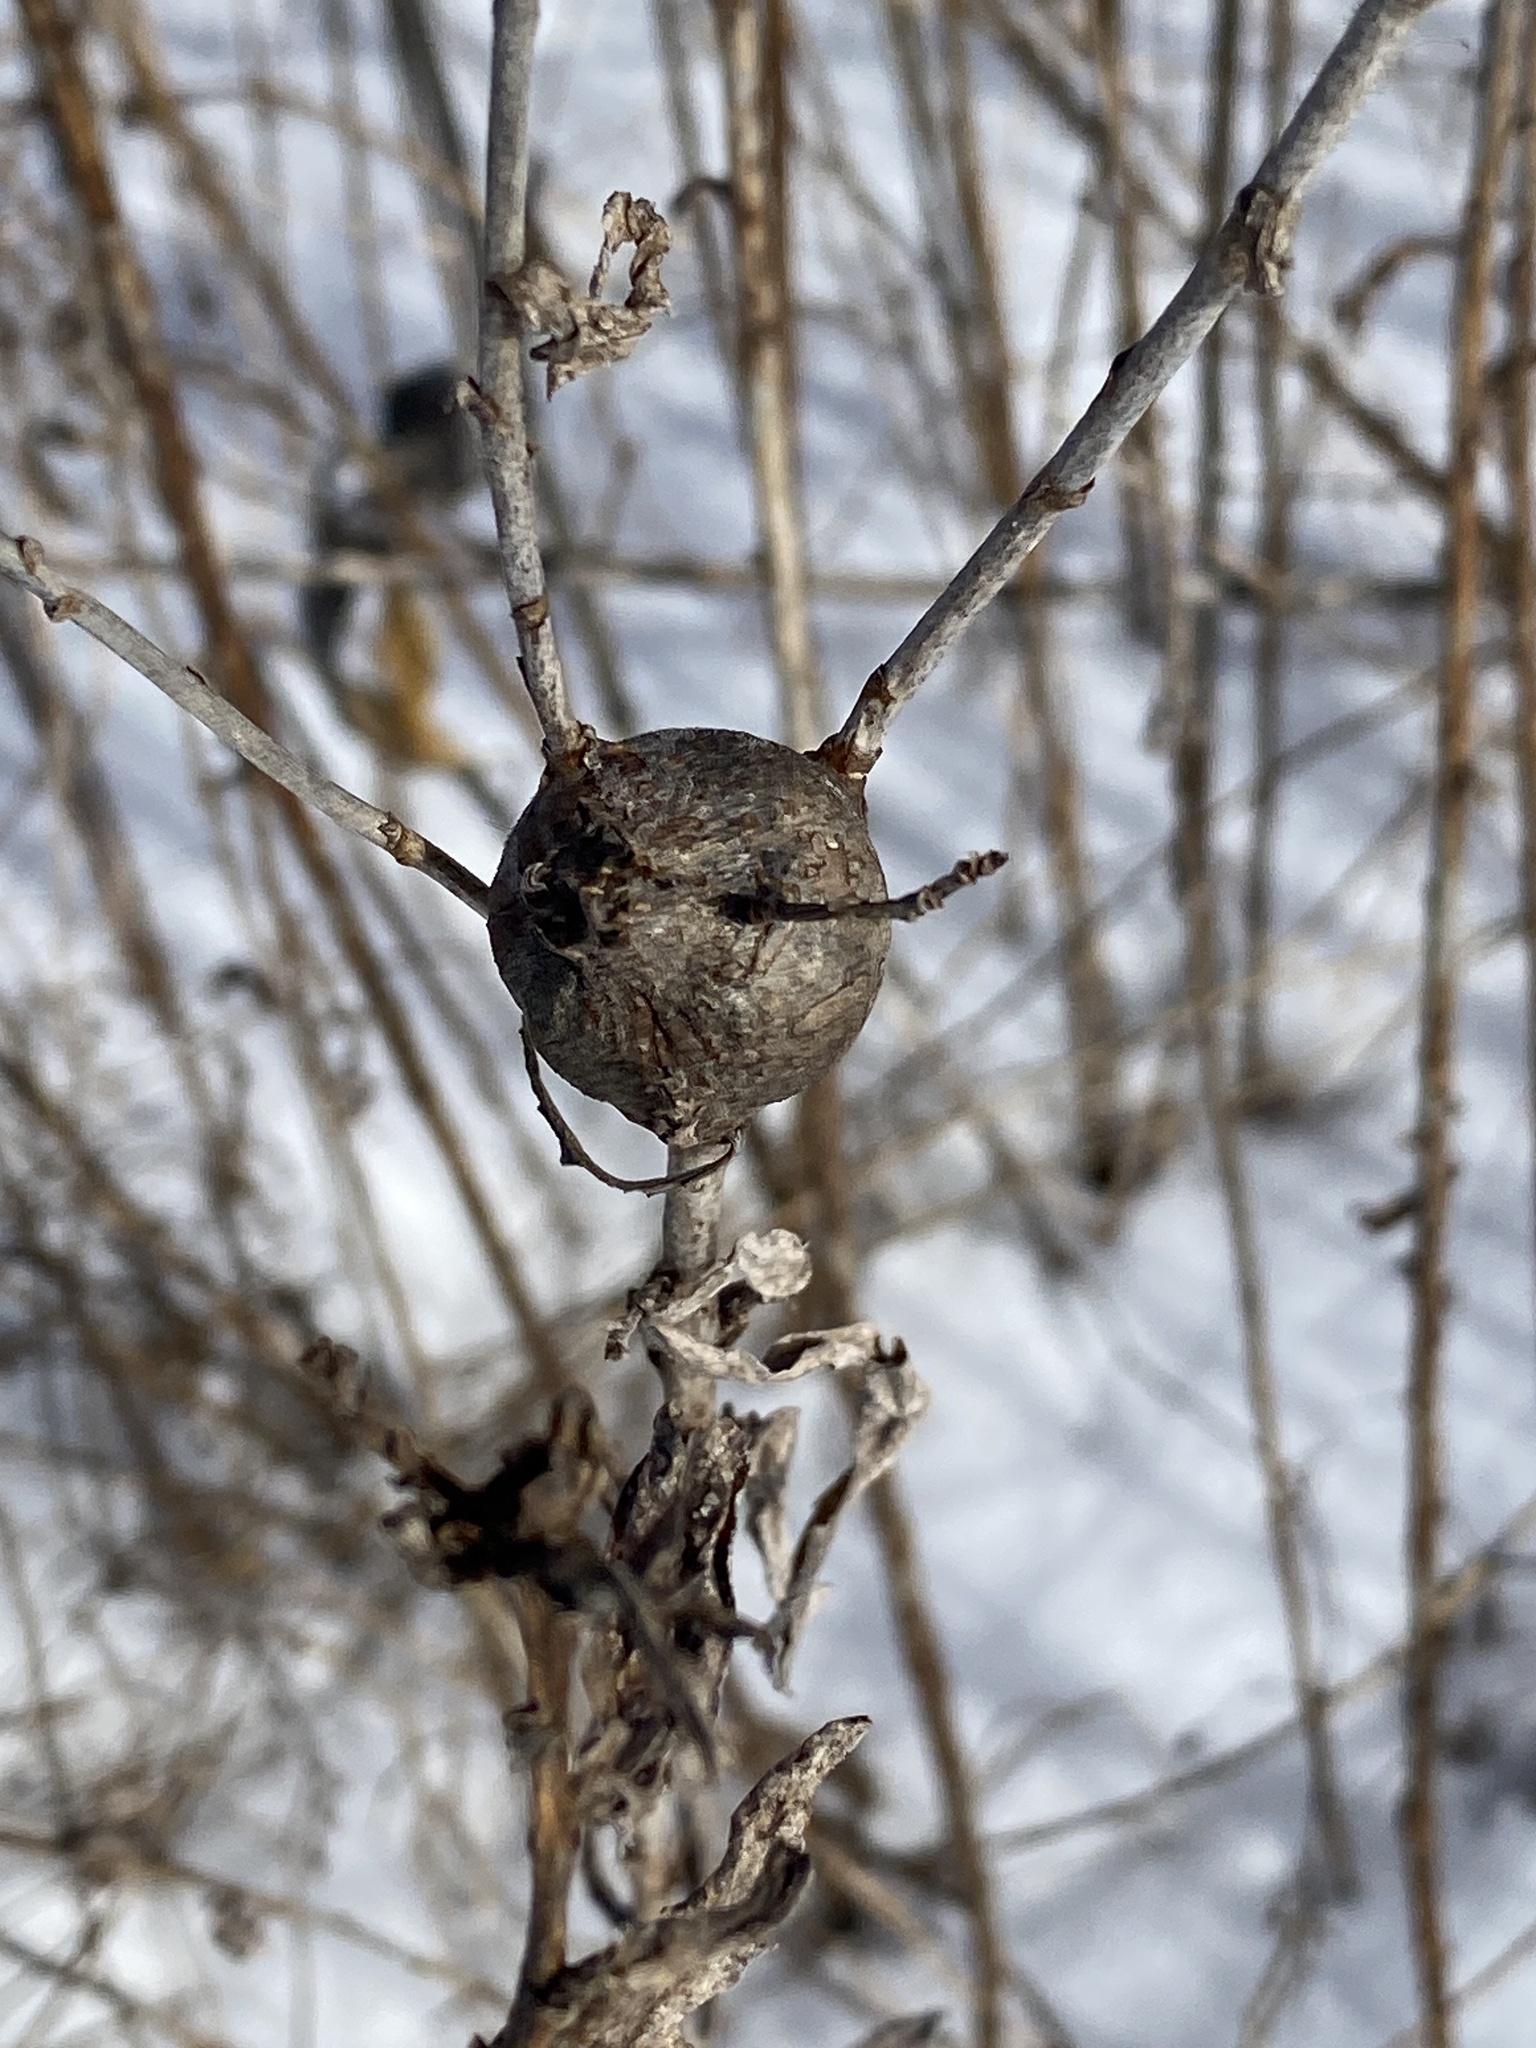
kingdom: Animalia
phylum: Arthropoda
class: Insecta
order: Diptera
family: Tephritidae
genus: Eurosta
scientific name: Eurosta solidaginis
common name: Goldenrod gall fly
